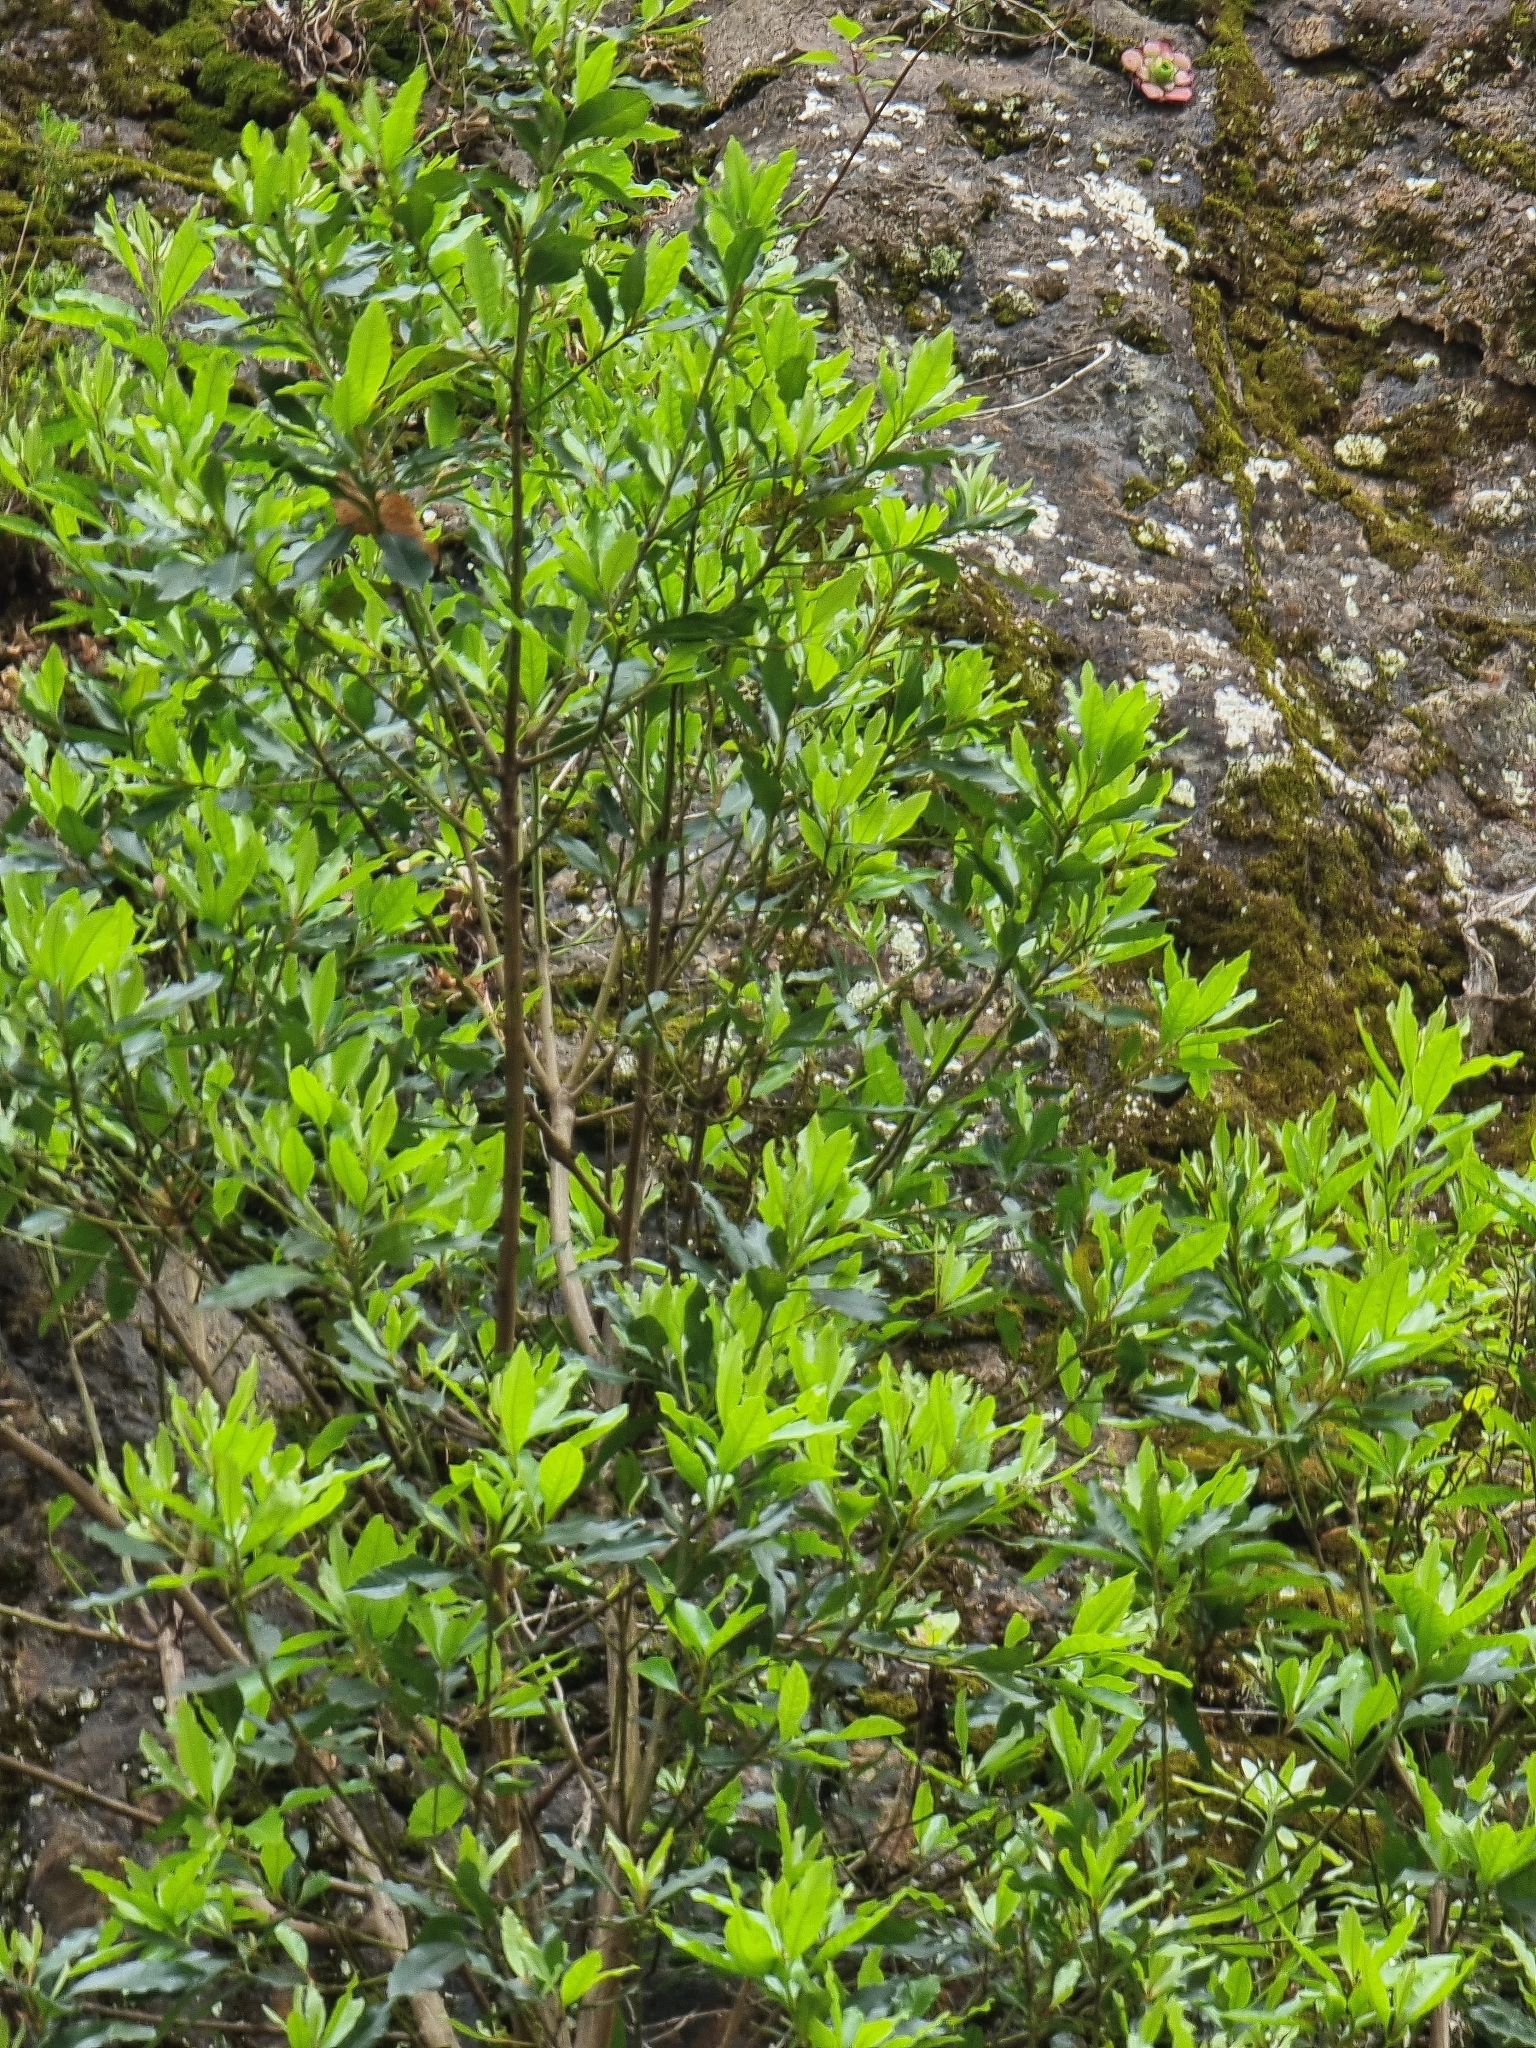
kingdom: Plantae
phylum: Tracheophyta
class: Magnoliopsida
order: Fagales
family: Myricaceae
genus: Morella
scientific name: Morella faya
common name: Firetree
